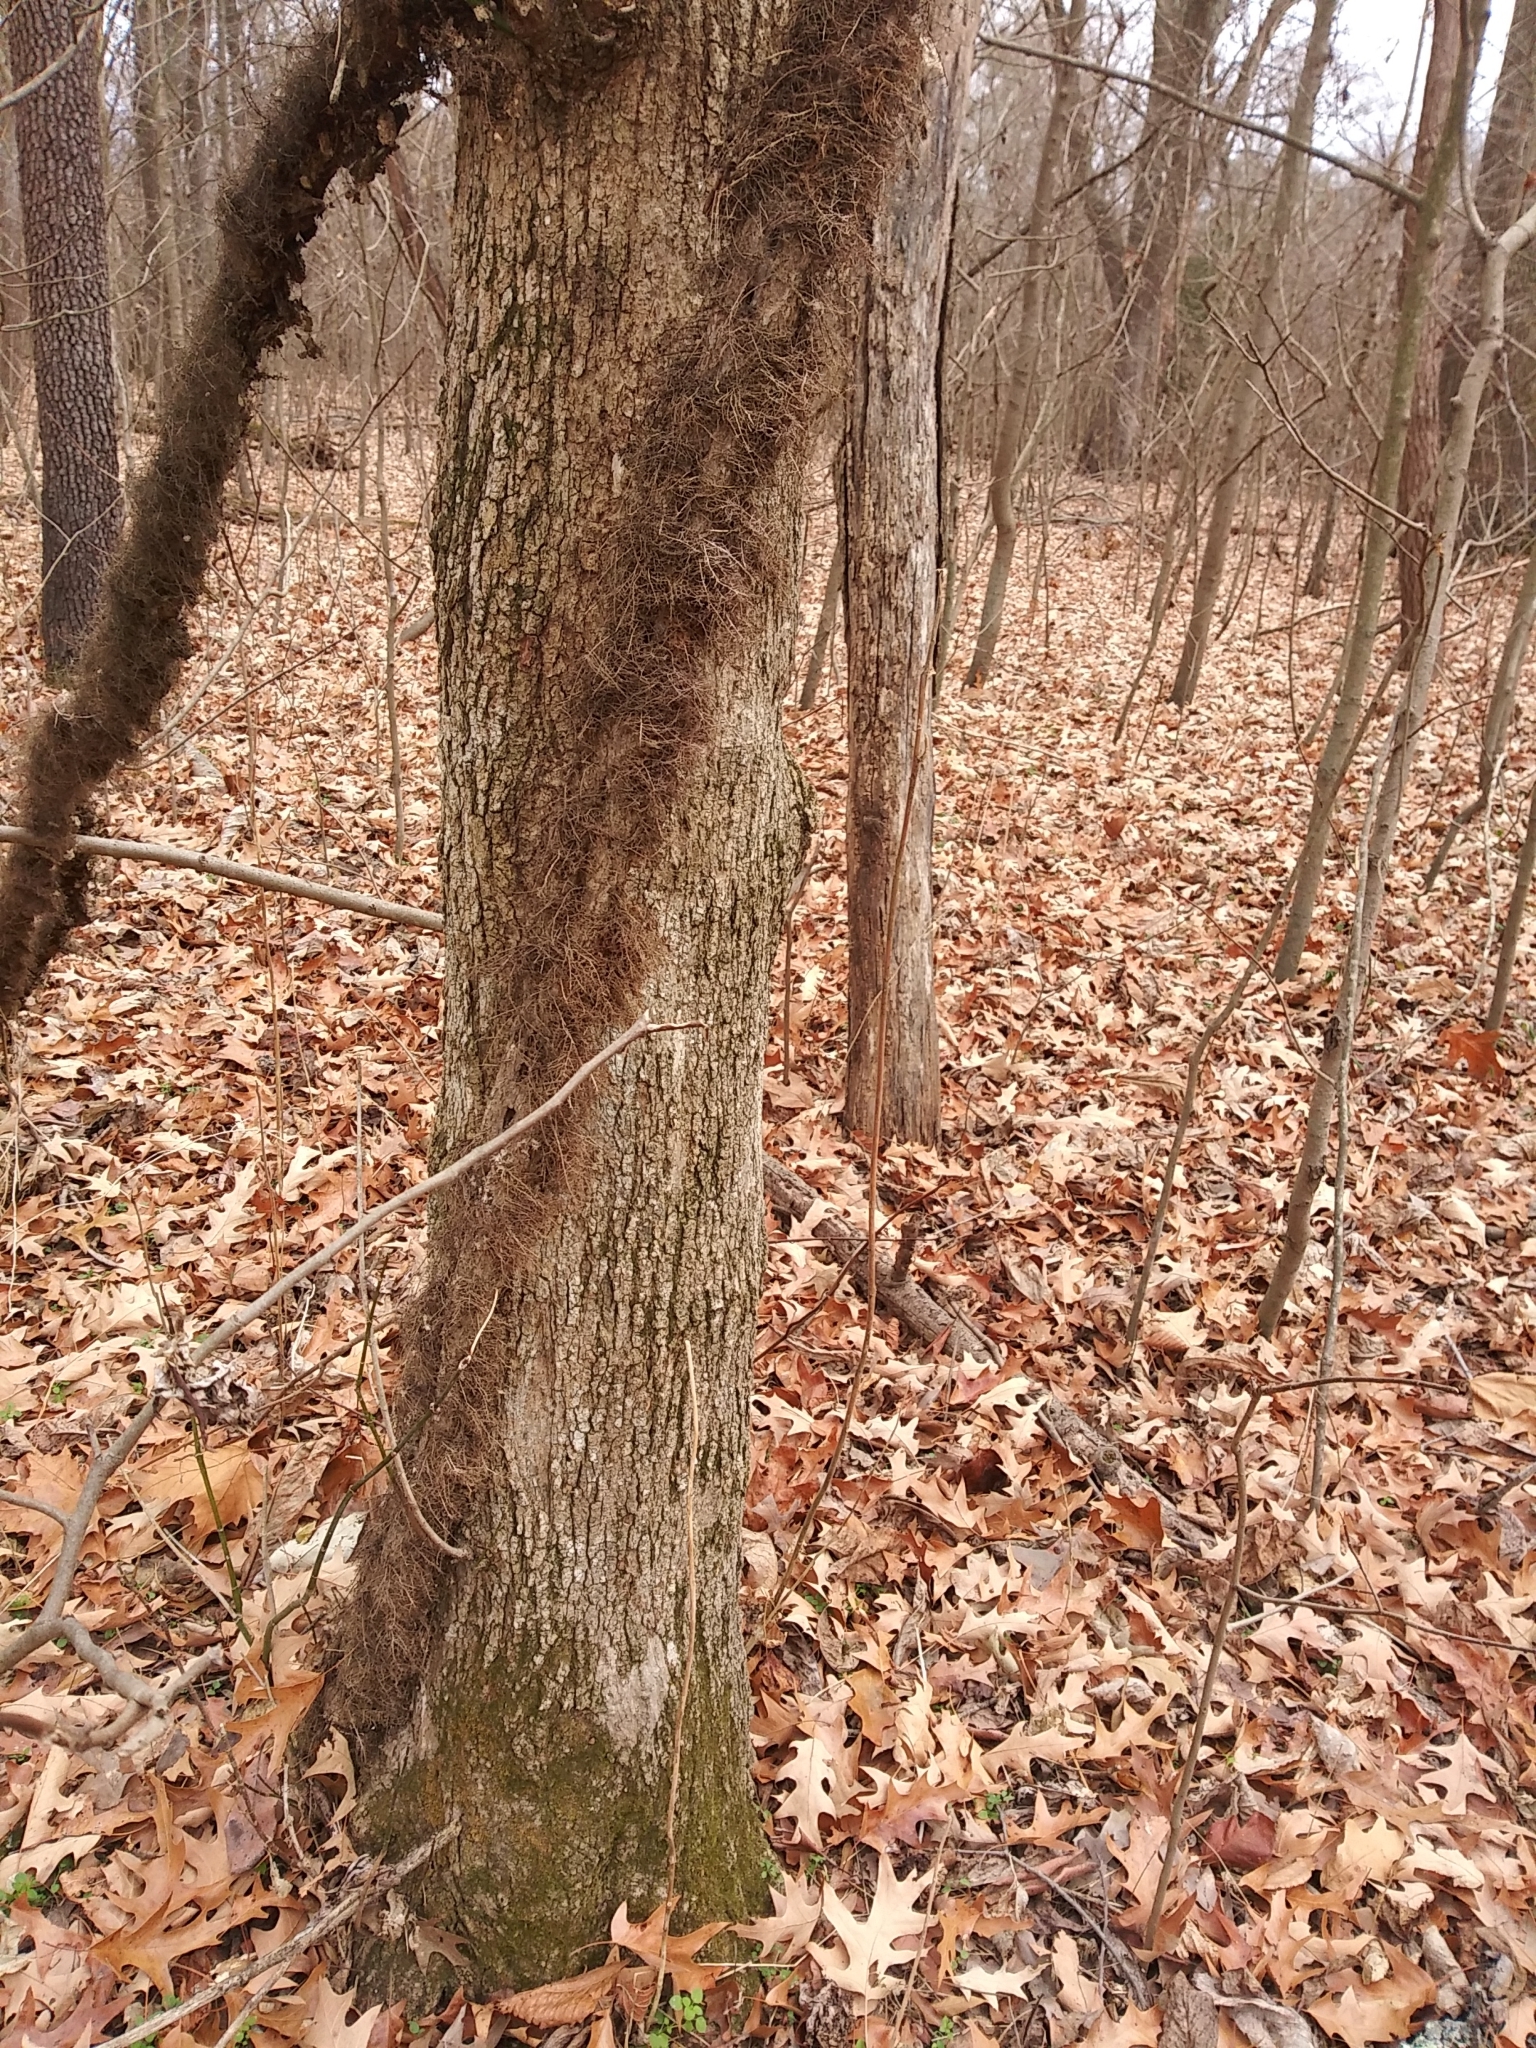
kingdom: Plantae
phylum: Tracheophyta
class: Magnoliopsida
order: Sapindales
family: Anacardiaceae
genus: Toxicodendron
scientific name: Toxicodendron radicans
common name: Poison ivy
